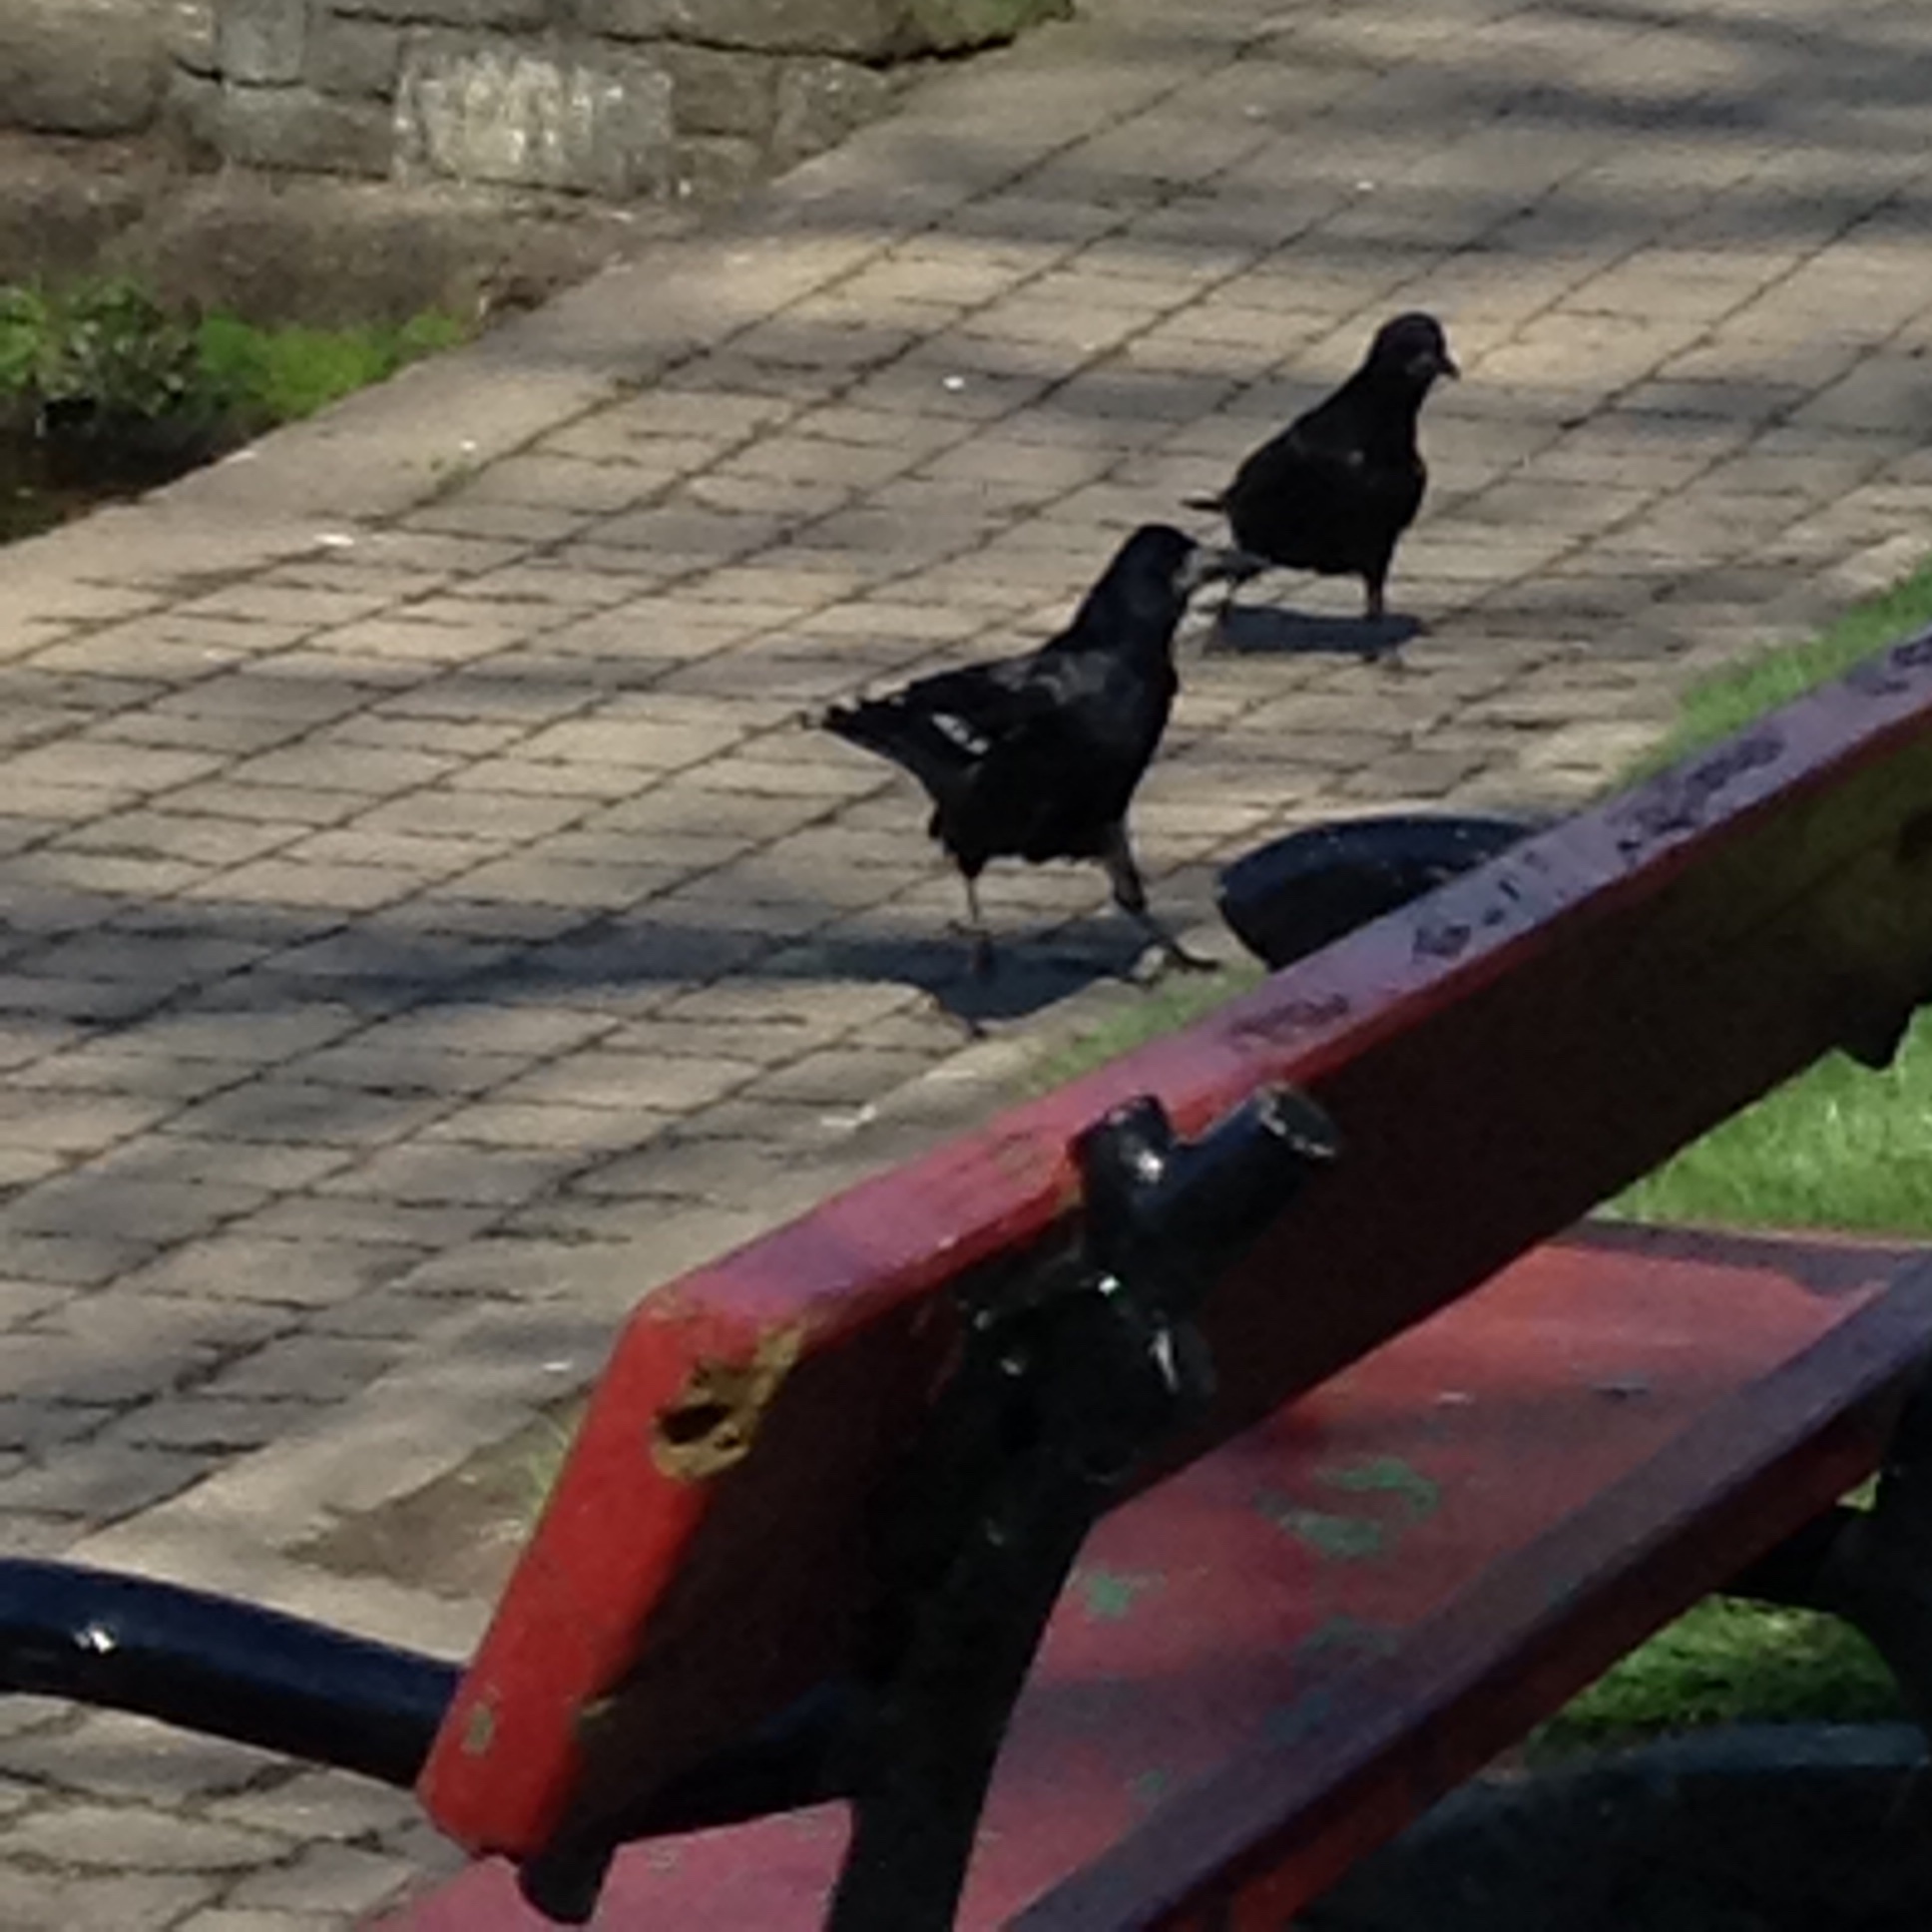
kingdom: Animalia
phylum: Chordata
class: Aves
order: Passeriformes
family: Corvidae
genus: Corvus
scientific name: Corvus frugilegus
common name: Rook
